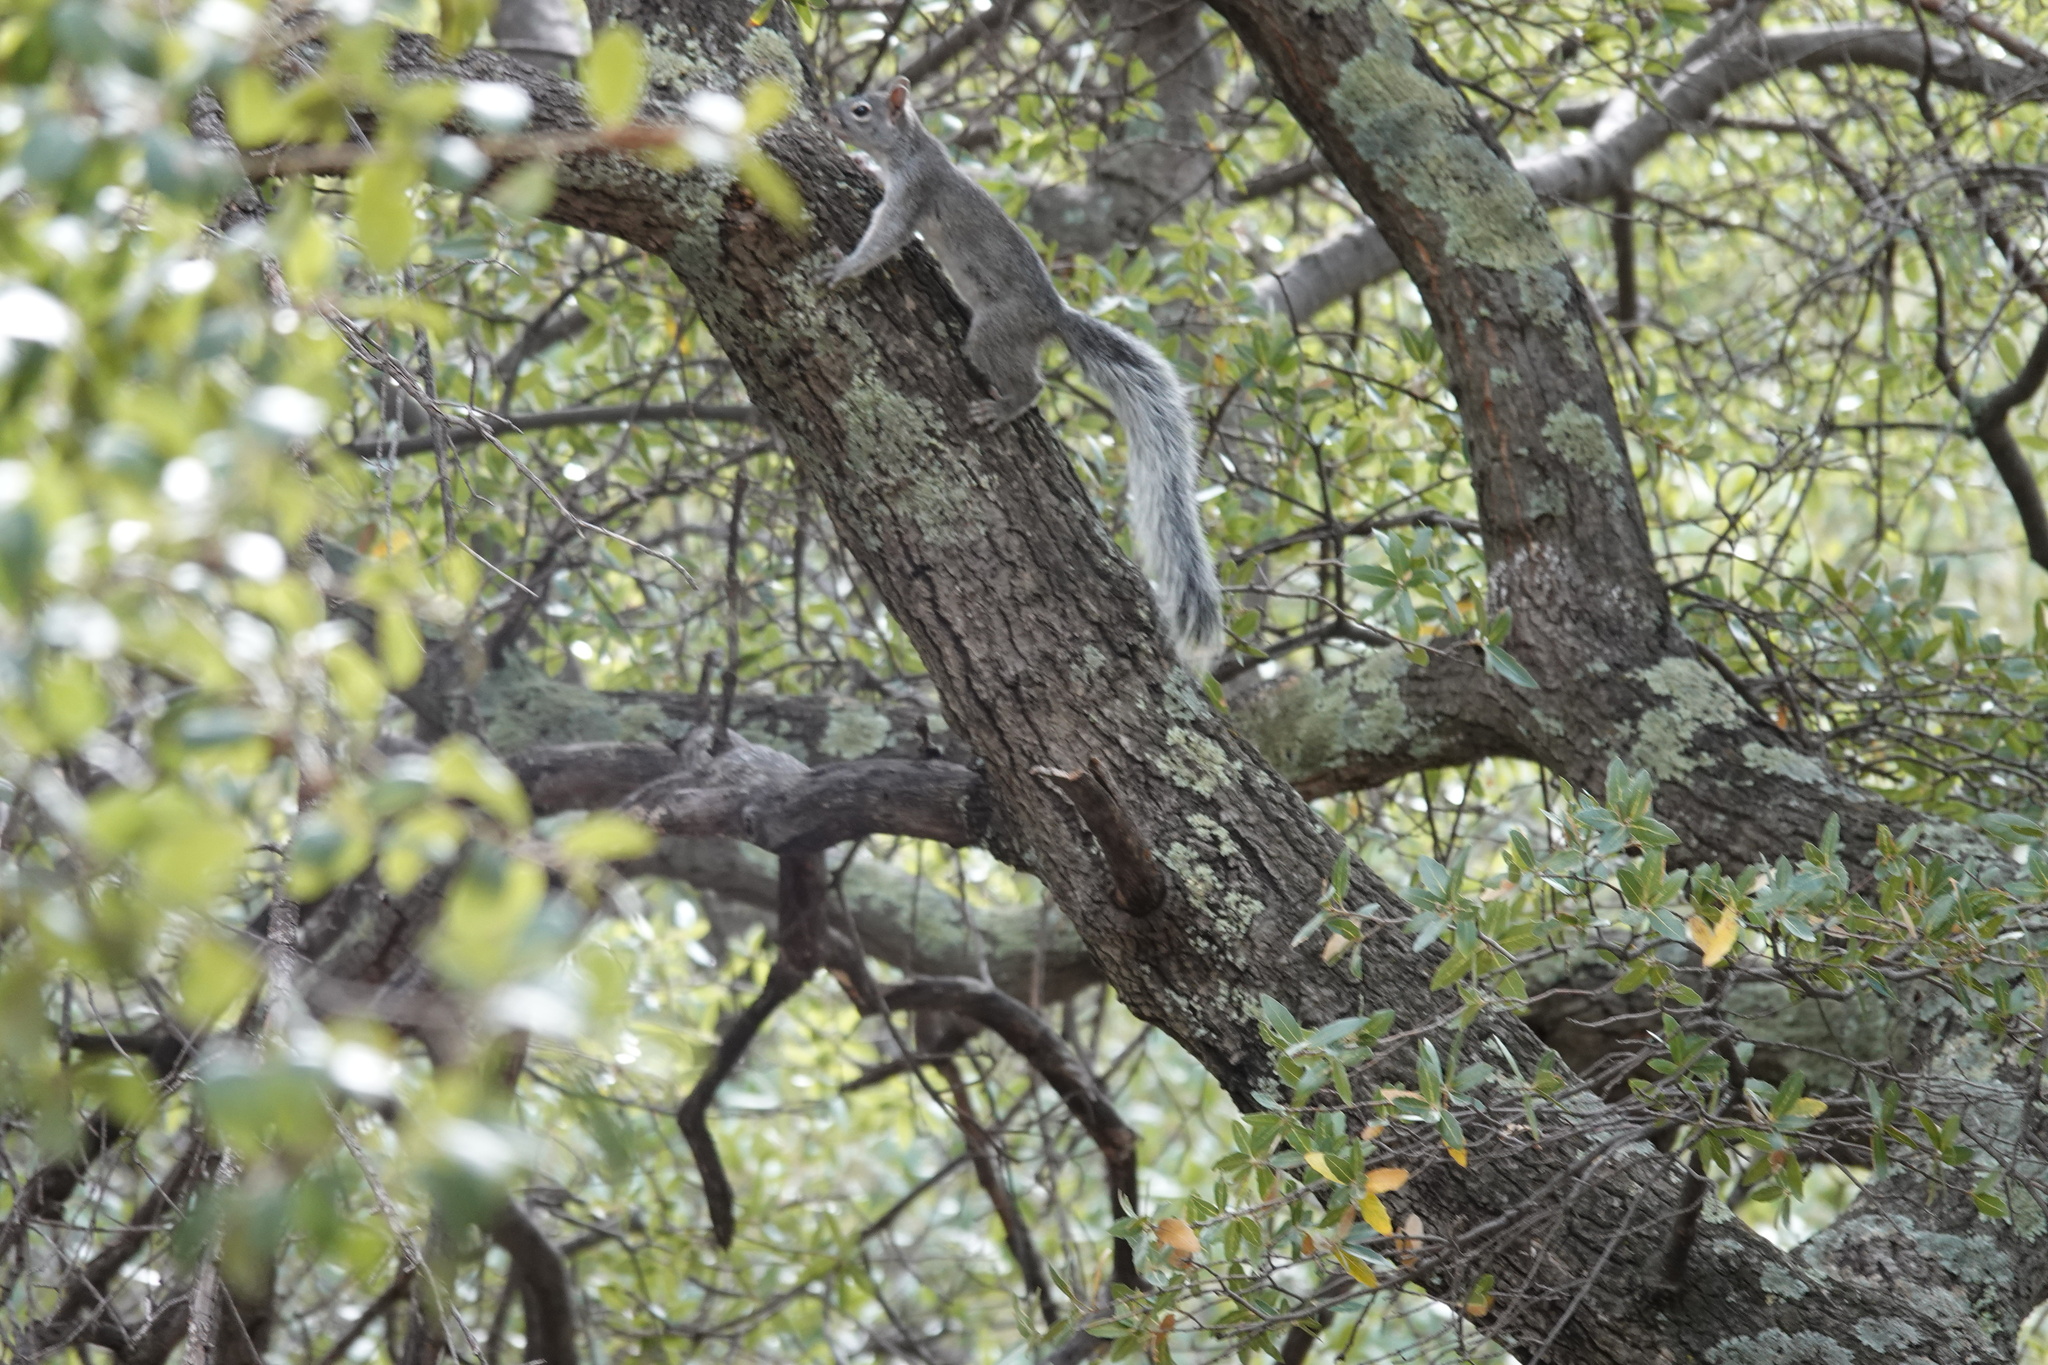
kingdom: Animalia
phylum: Chordata
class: Mammalia
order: Rodentia
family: Sciuridae
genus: Sciurus
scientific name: Sciurus arizonensis
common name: Arizona gray squirrel
